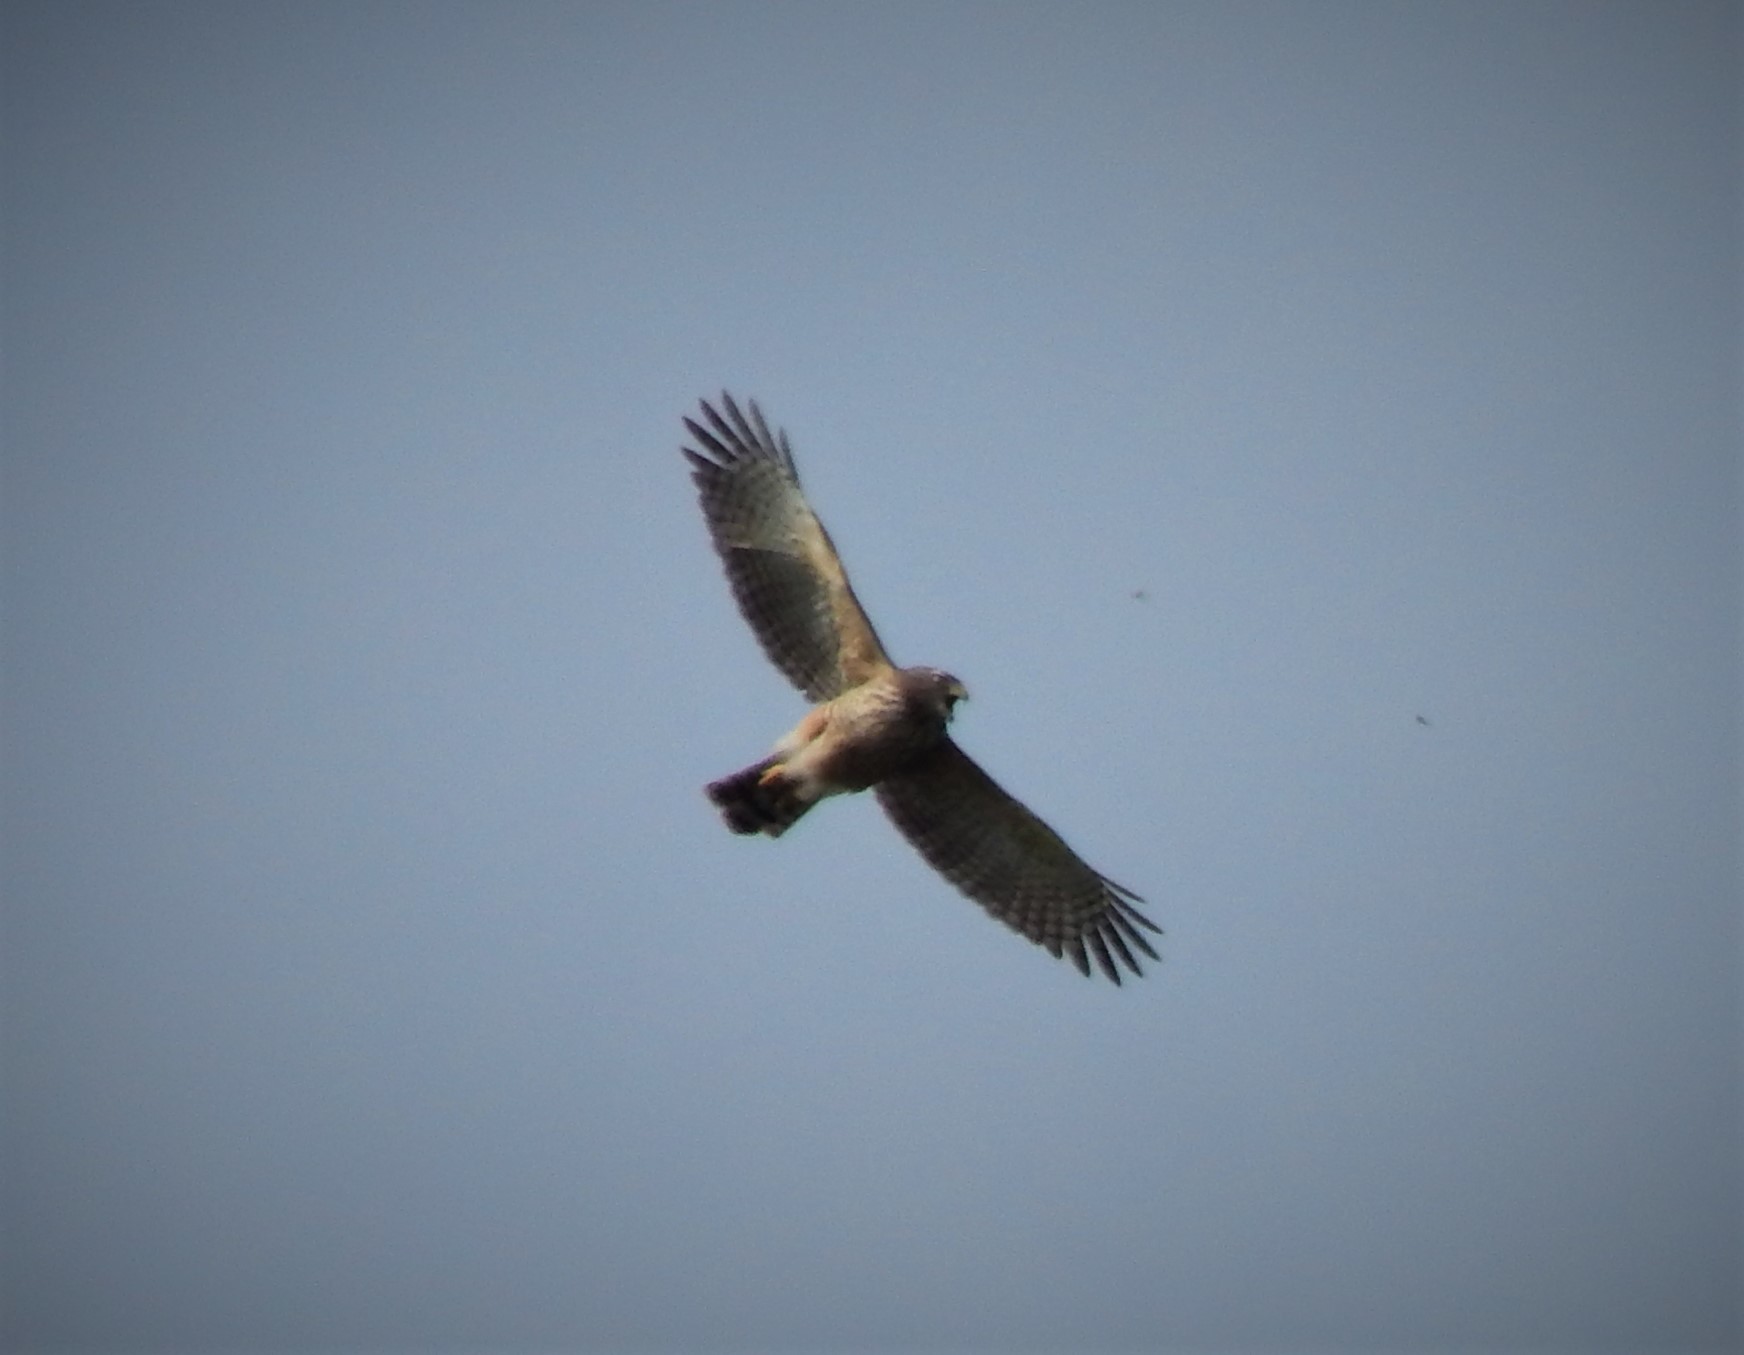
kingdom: Animalia
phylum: Chordata
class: Aves
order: Accipitriformes
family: Accipitridae
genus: Rupornis
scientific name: Rupornis magnirostris
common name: Roadside hawk
